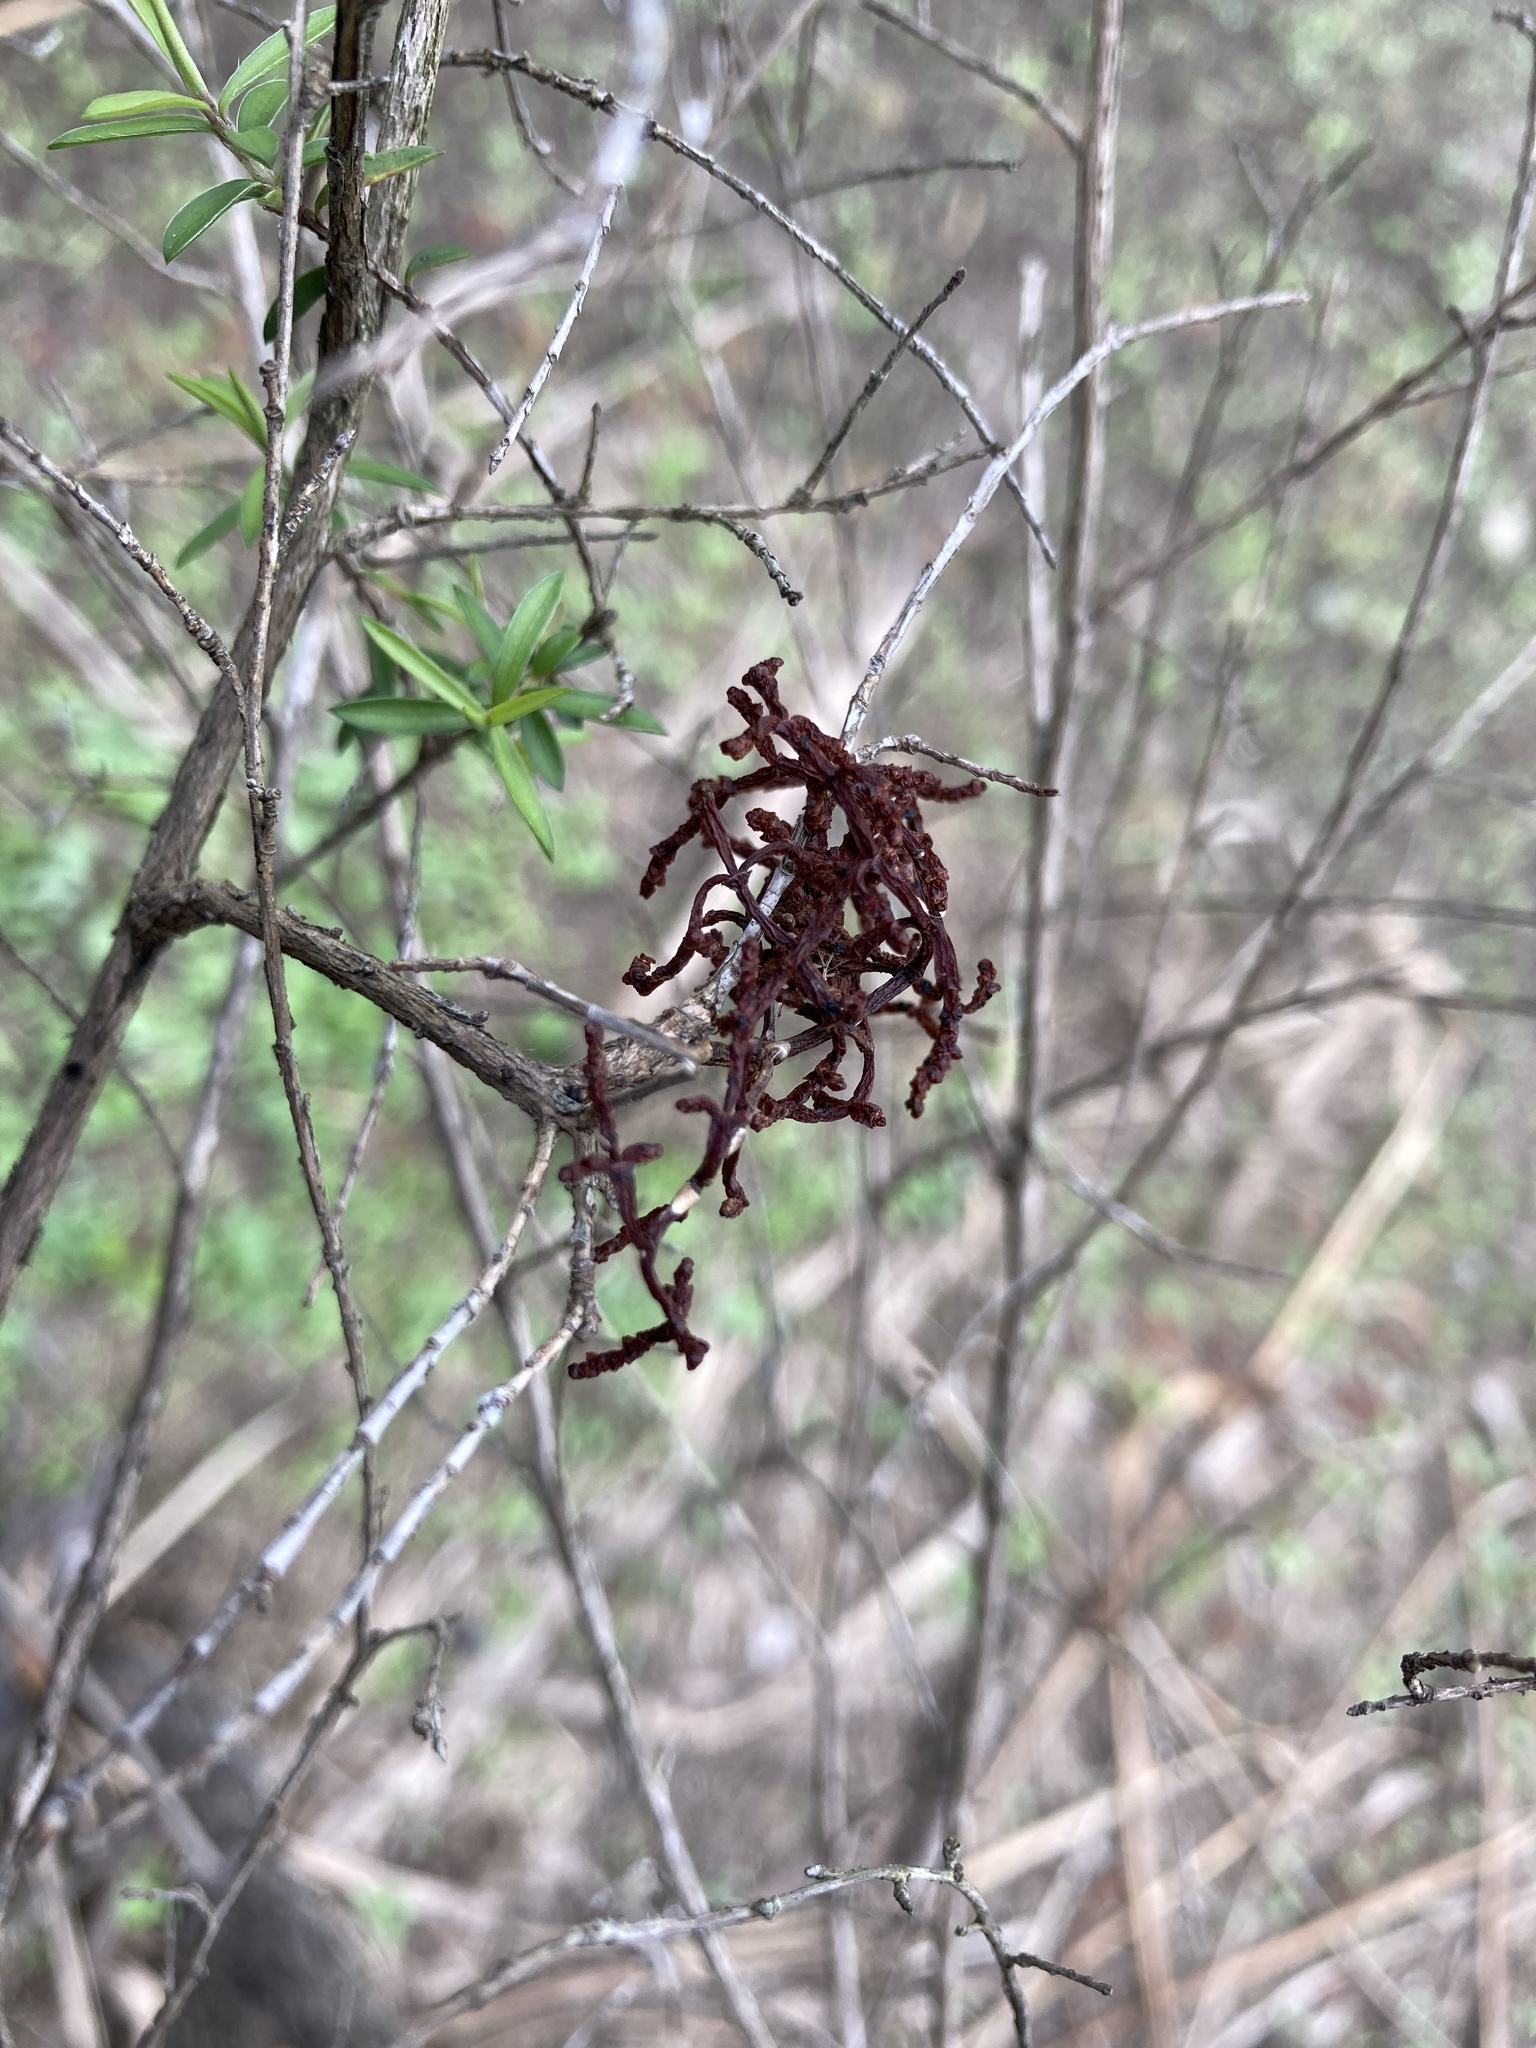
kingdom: Plantae
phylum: Tracheophyta
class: Magnoliopsida
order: Santalales
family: Viscaceae
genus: Korthalsella
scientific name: Korthalsella salicornioides
